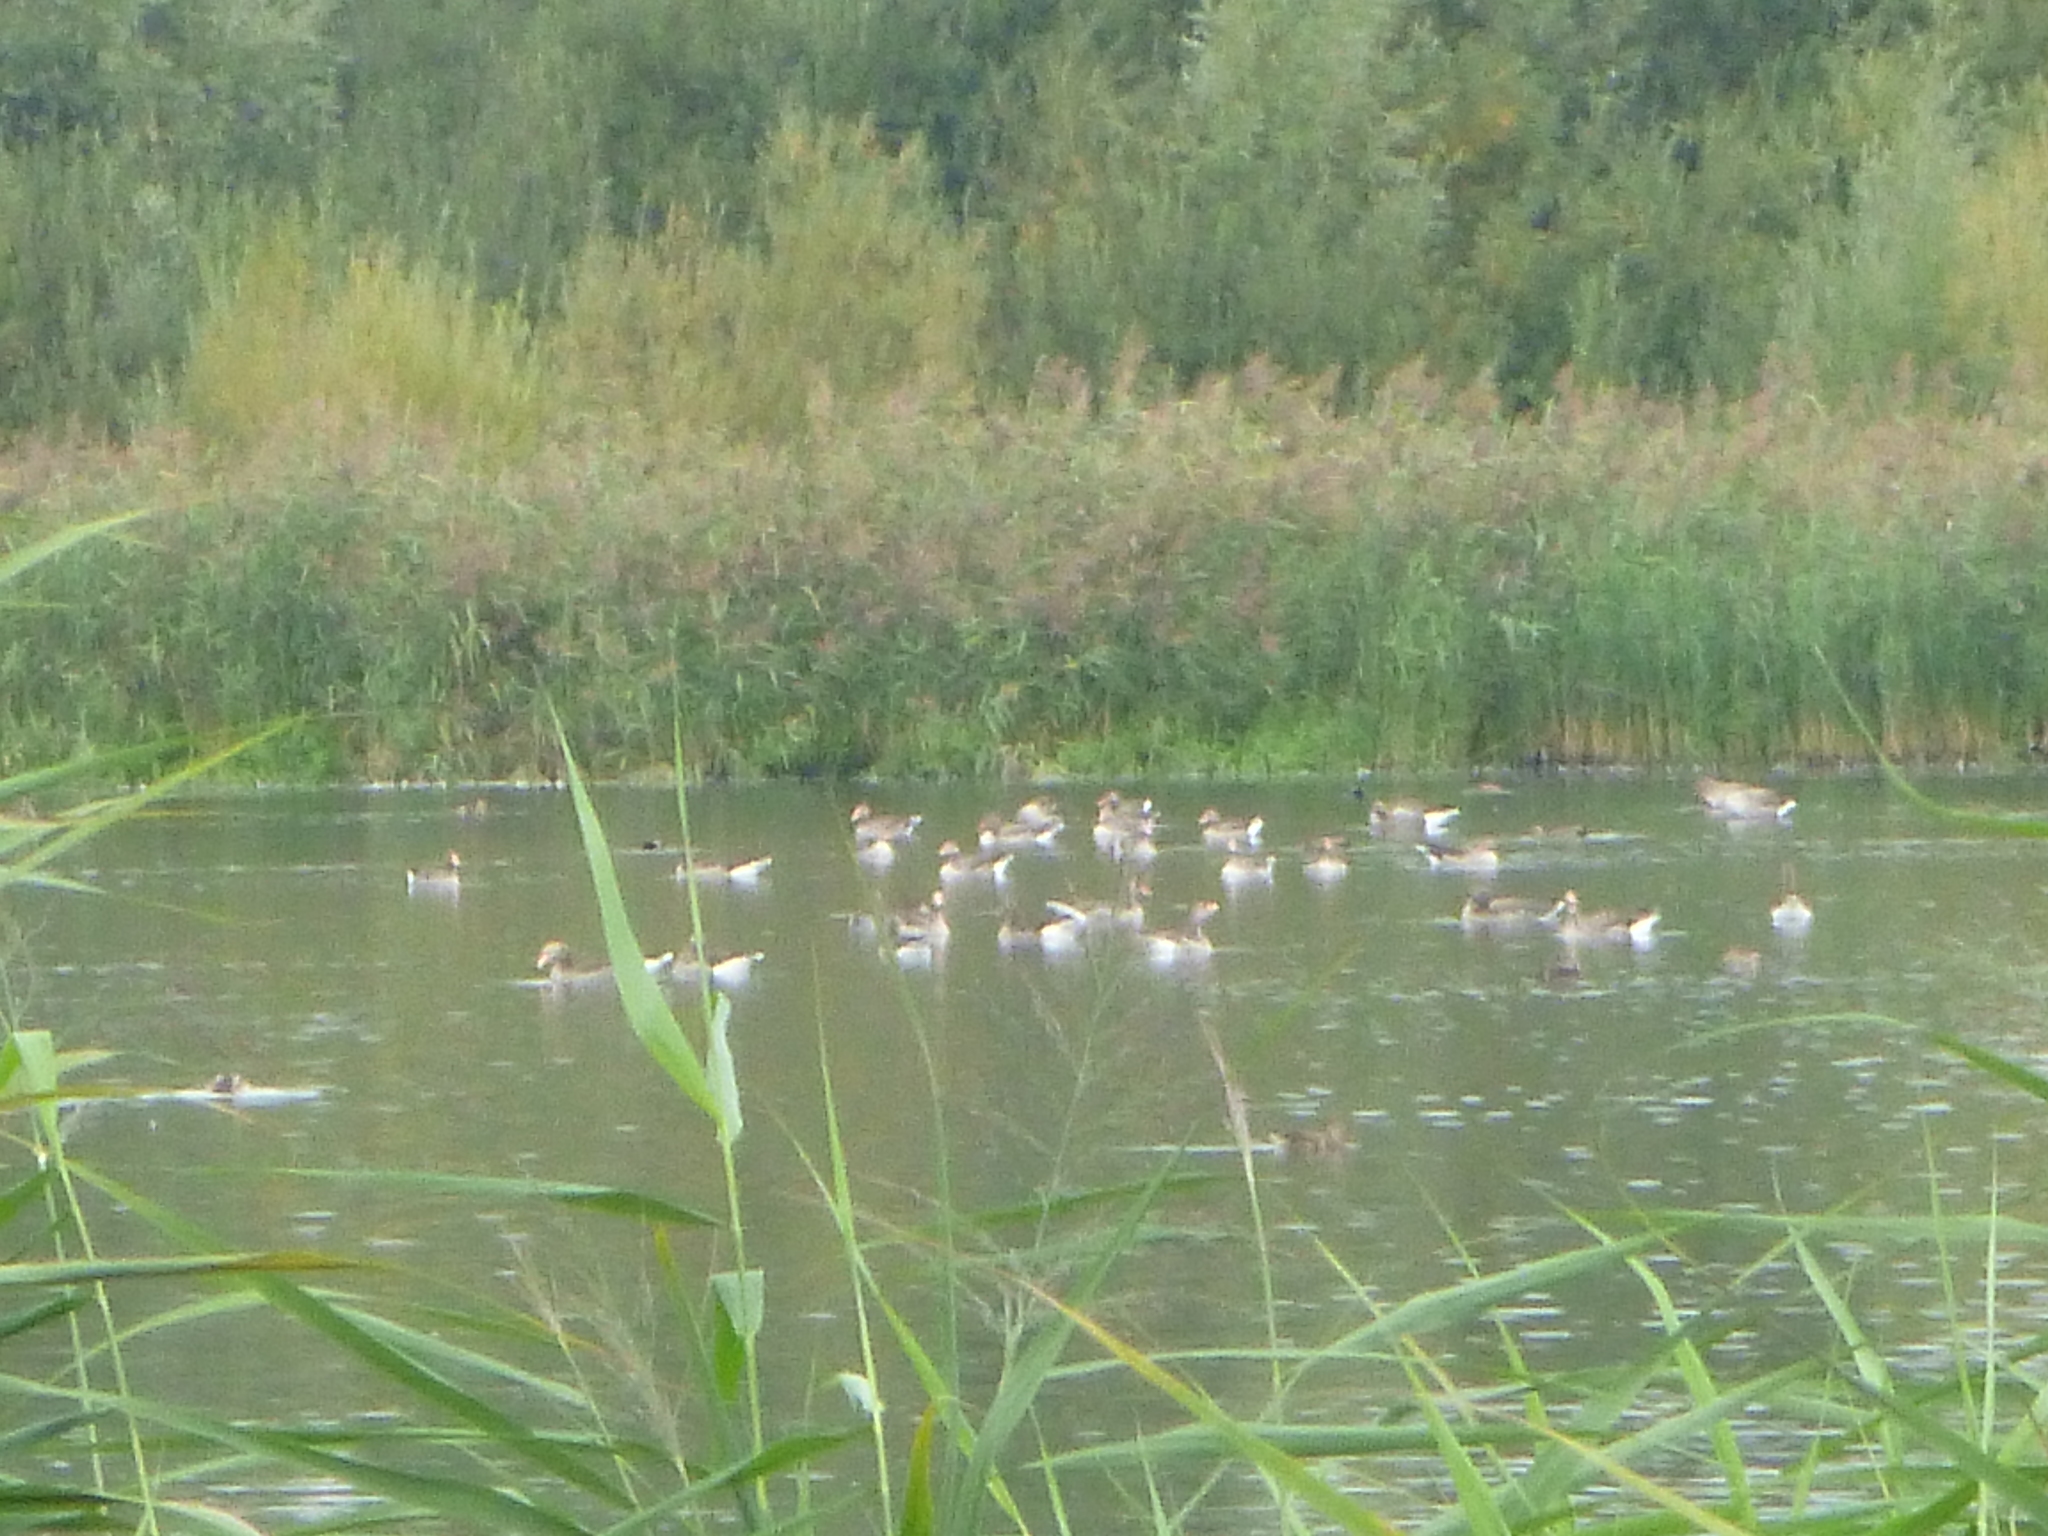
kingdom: Animalia
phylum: Chordata
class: Aves
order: Anseriformes
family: Anatidae
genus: Anser
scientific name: Anser anser
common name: Greylag goose
